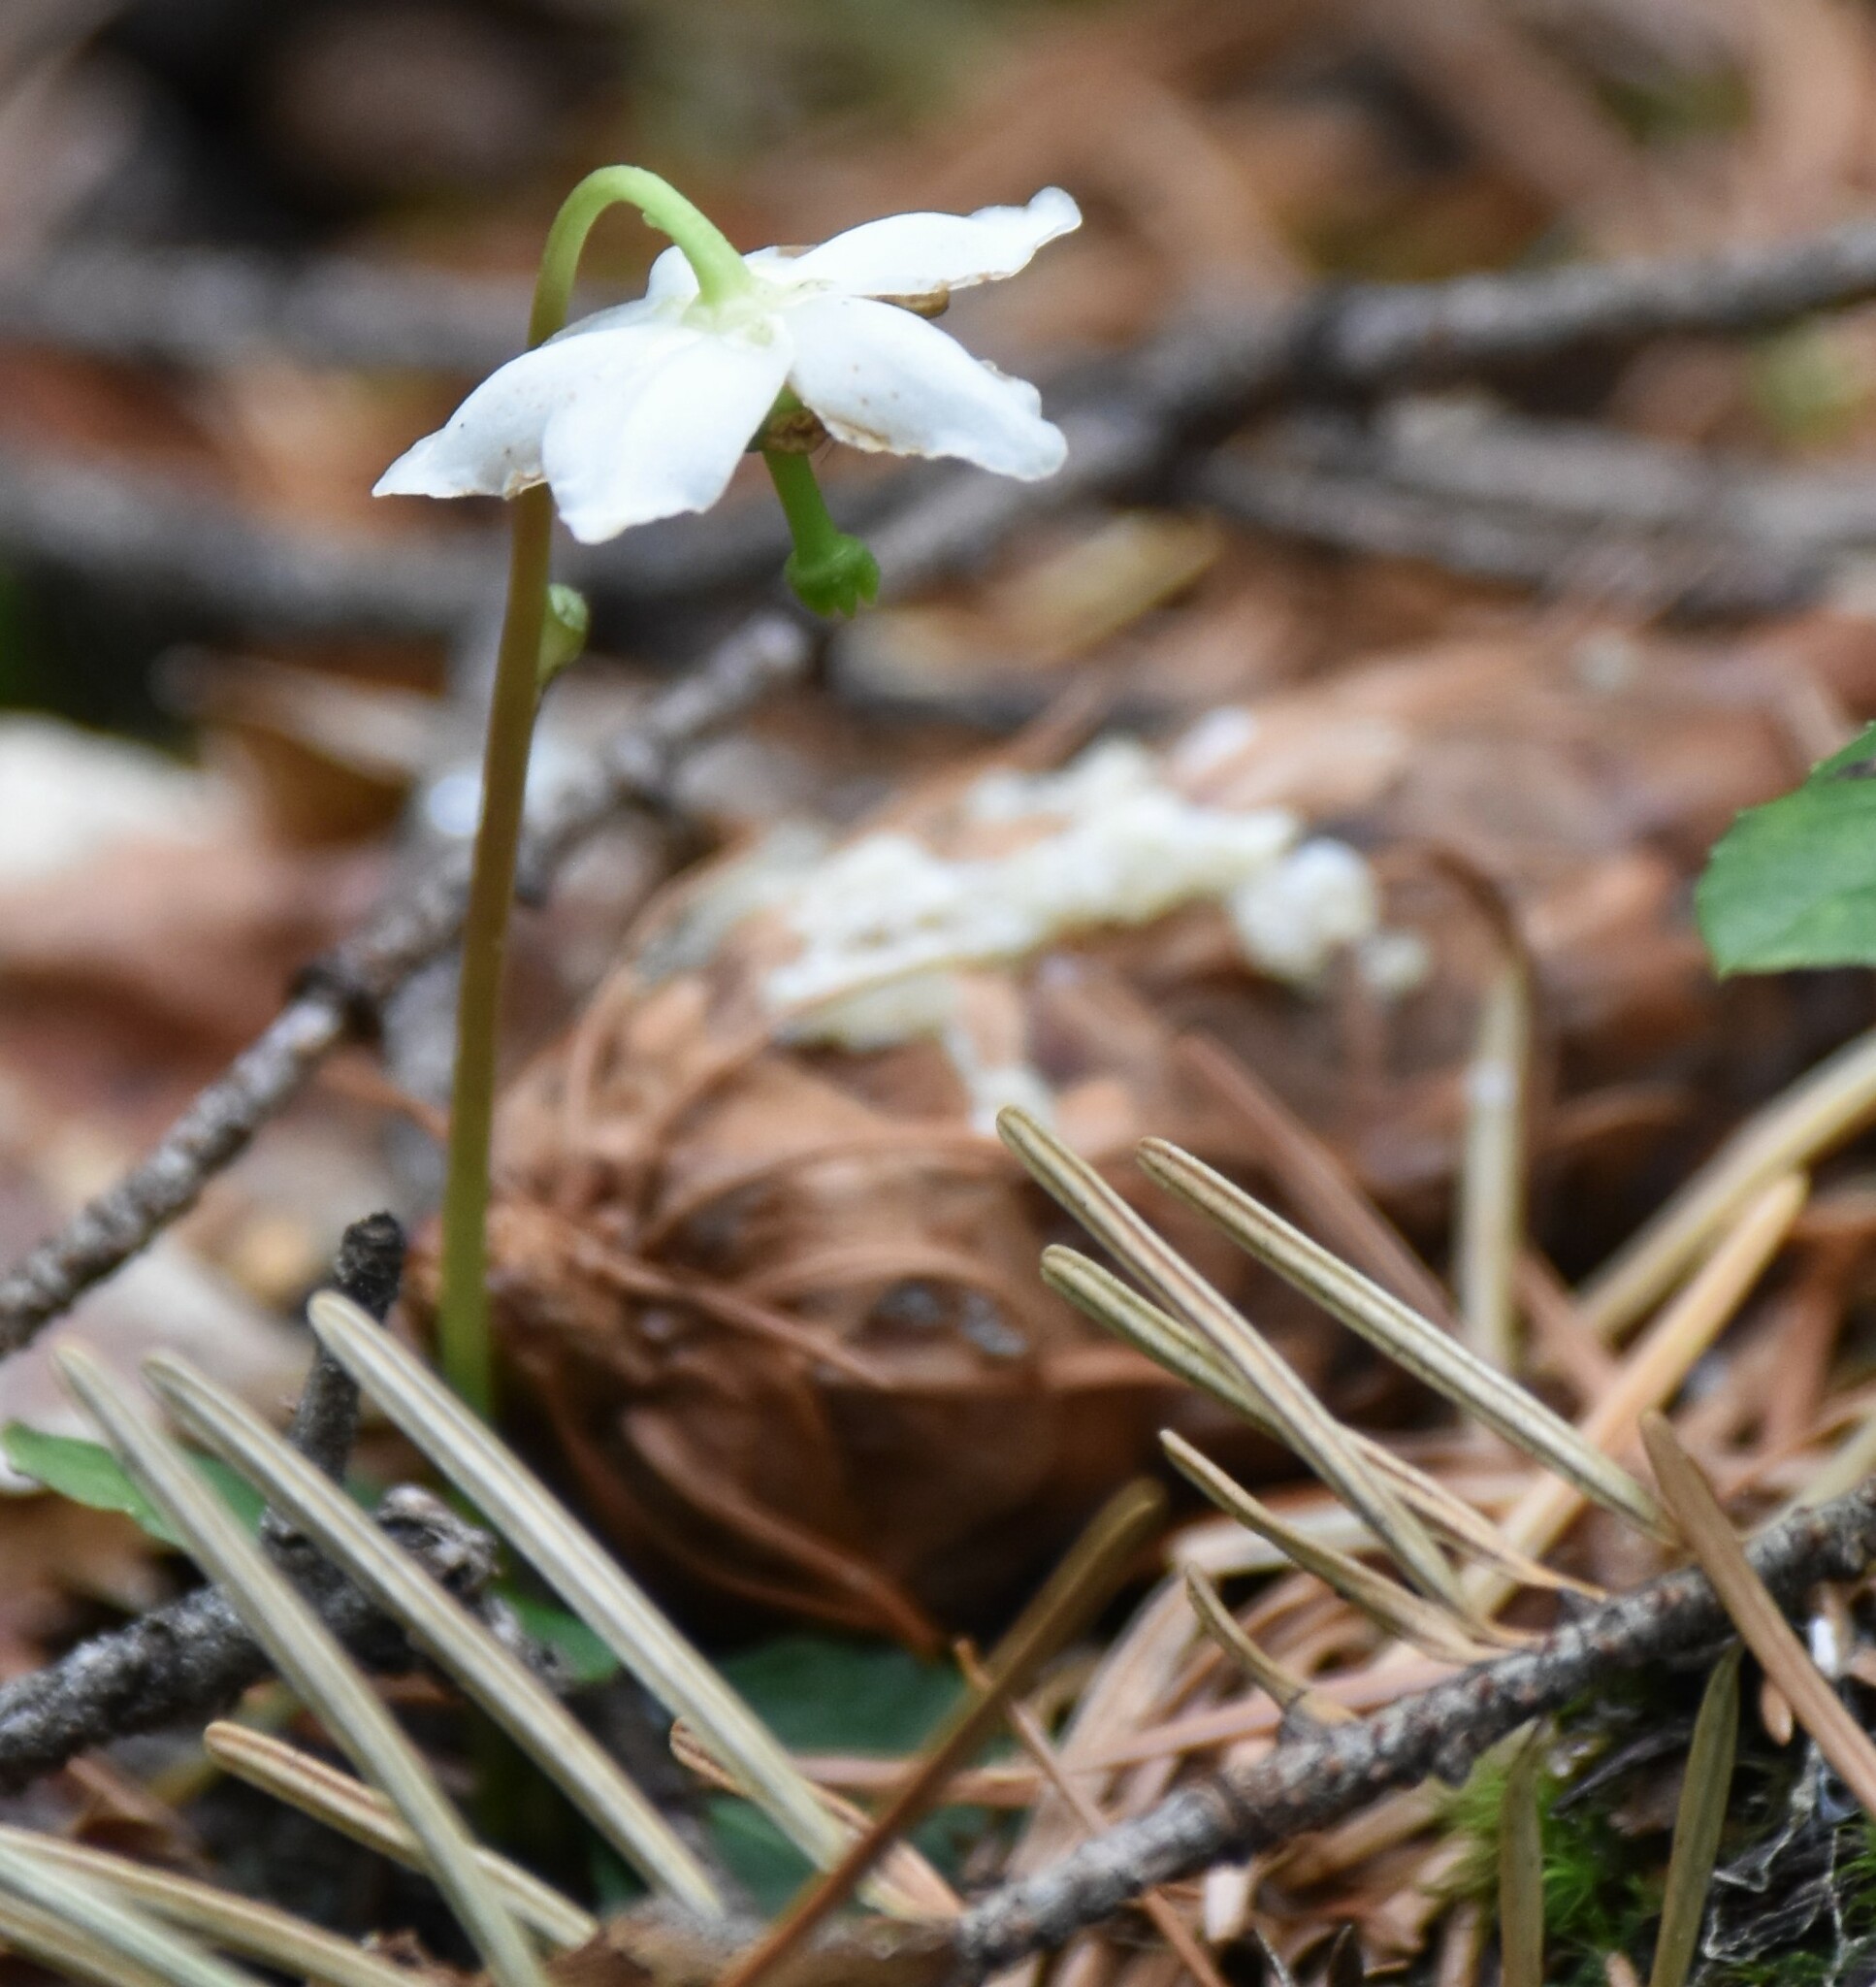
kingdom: Plantae
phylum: Tracheophyta
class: Magnoliopsida
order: Ericales
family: Ericaceae
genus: Moneses
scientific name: Moneses uniflora
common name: One-flowered wintergreen
